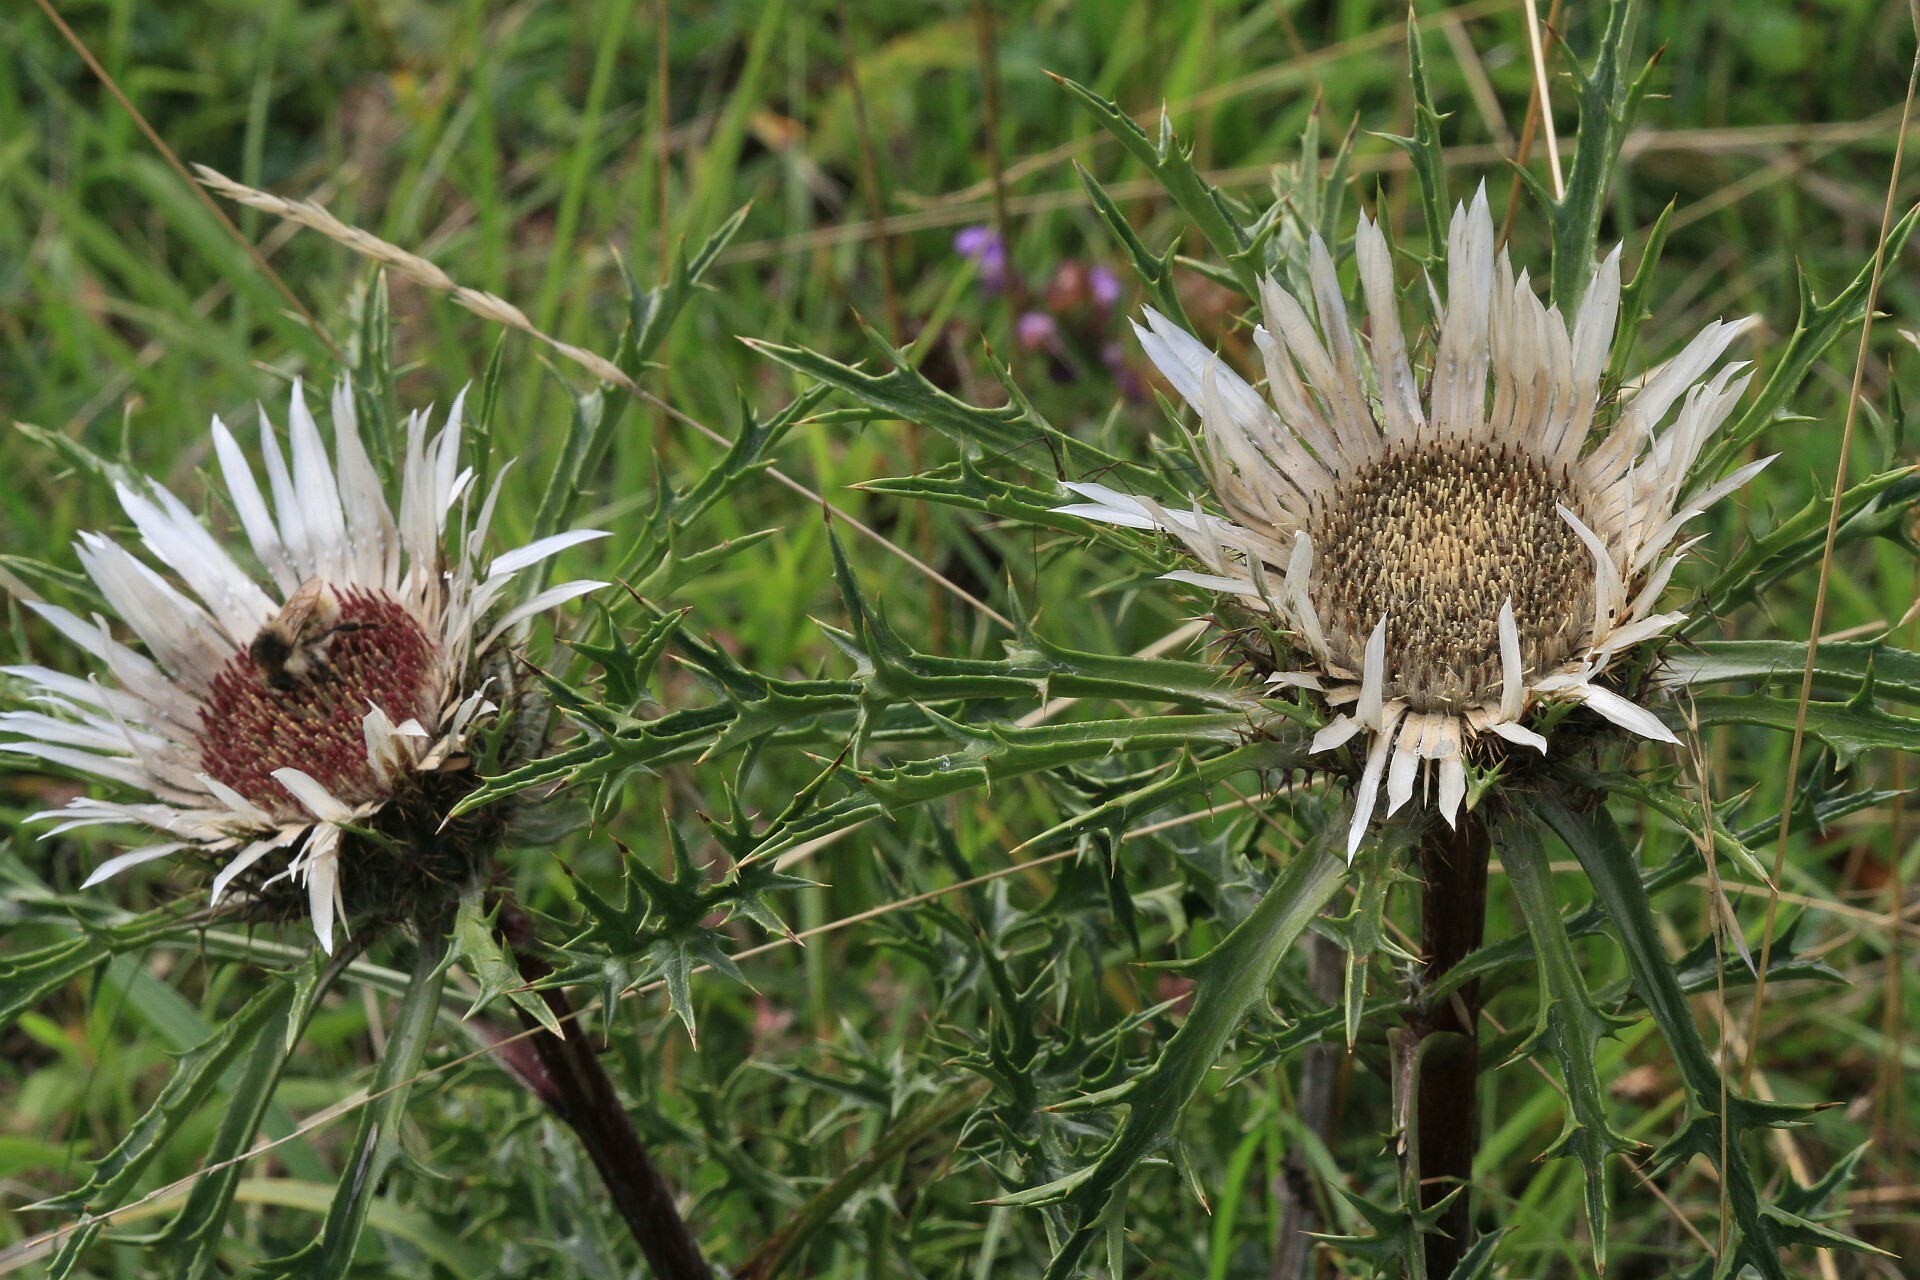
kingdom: Plantae
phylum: Tracheophyta
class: Magnoliopsida
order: Asterales
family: Asteraceae
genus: Carlina
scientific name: Carlina acaulis
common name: Stemless carline thistle
